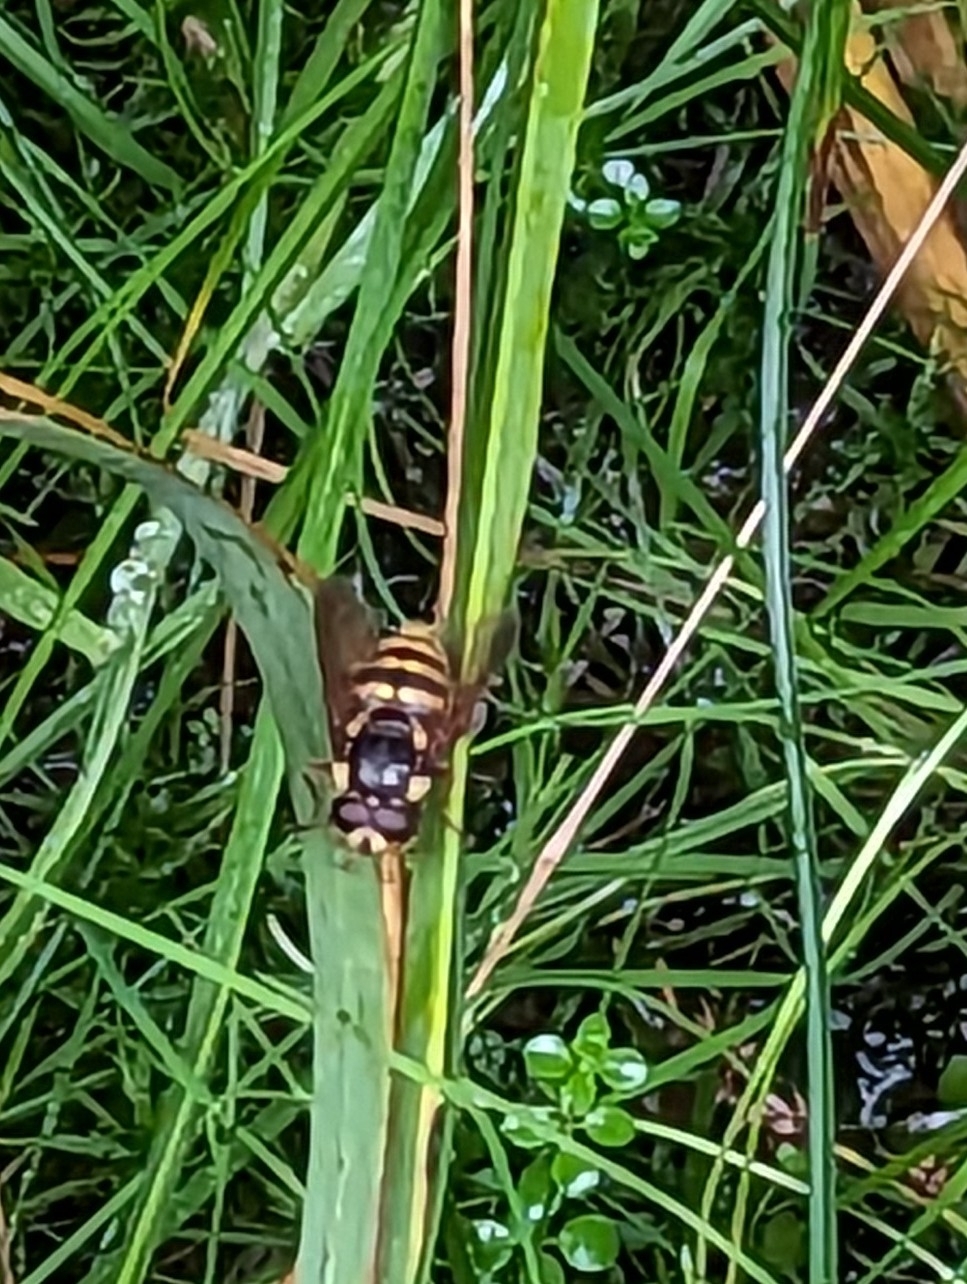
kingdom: Animalia
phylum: Arthropoda
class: Insecta
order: Diptera
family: Syrphidae
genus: Sericomyia
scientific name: Sericomyia silentis
